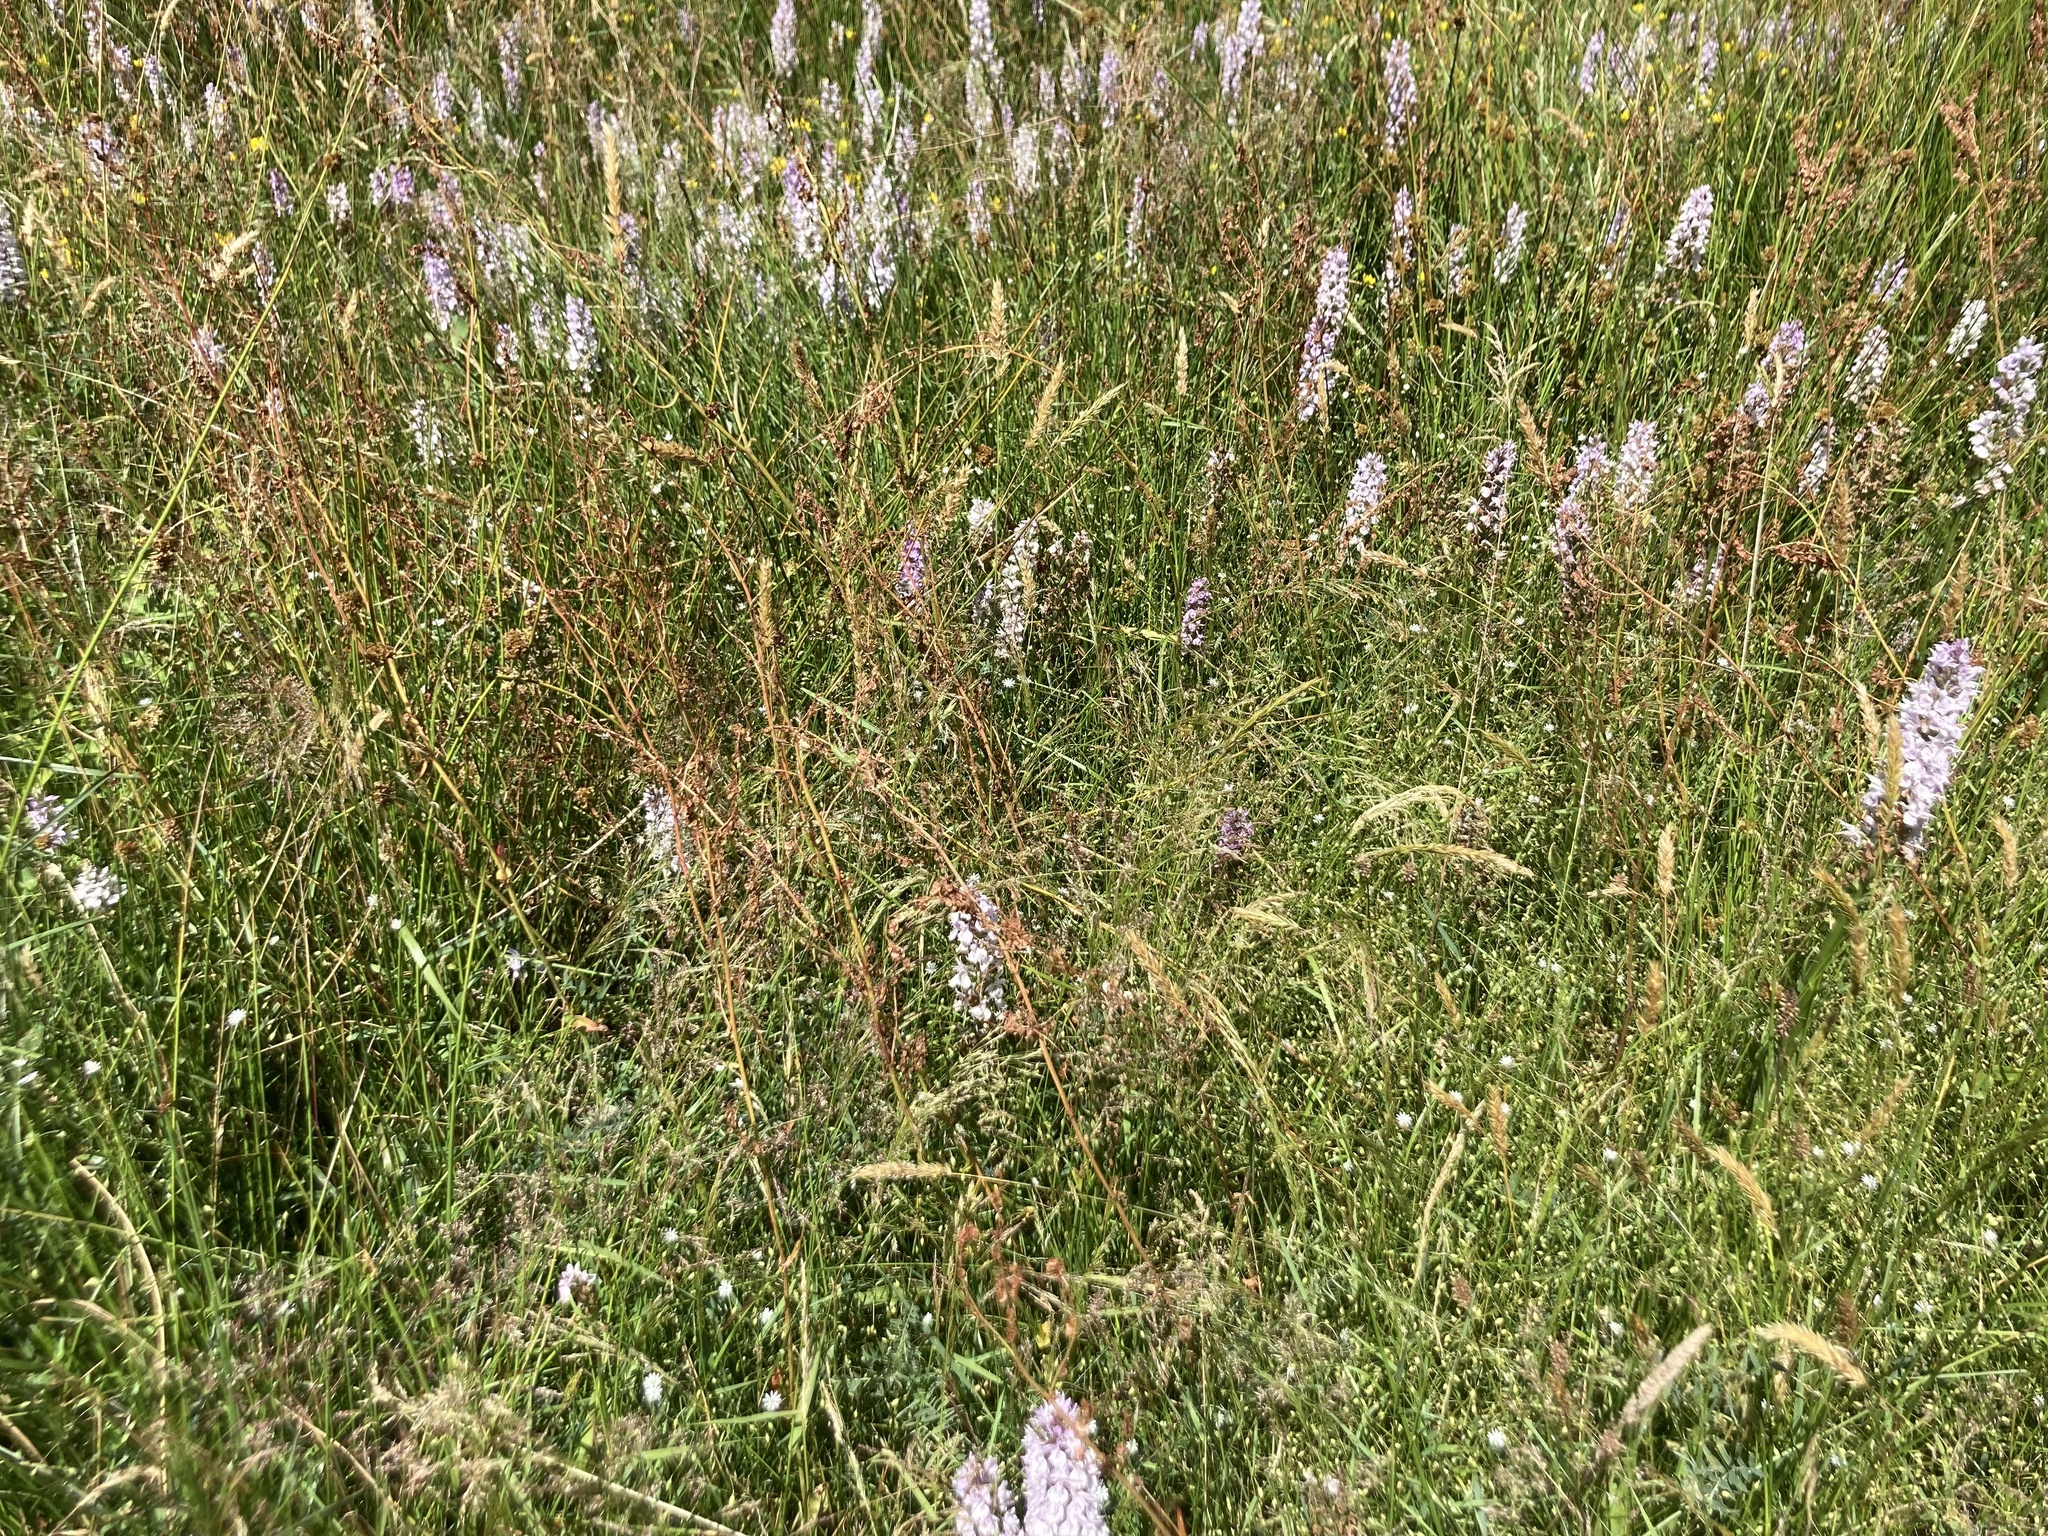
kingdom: Plantae
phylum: Tracheophyta
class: Liliopsida
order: Asparagales
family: Orchidaceae
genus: Dactylorhiza
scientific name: Dactylorhiza maculata
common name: Heath spotted-orchid
